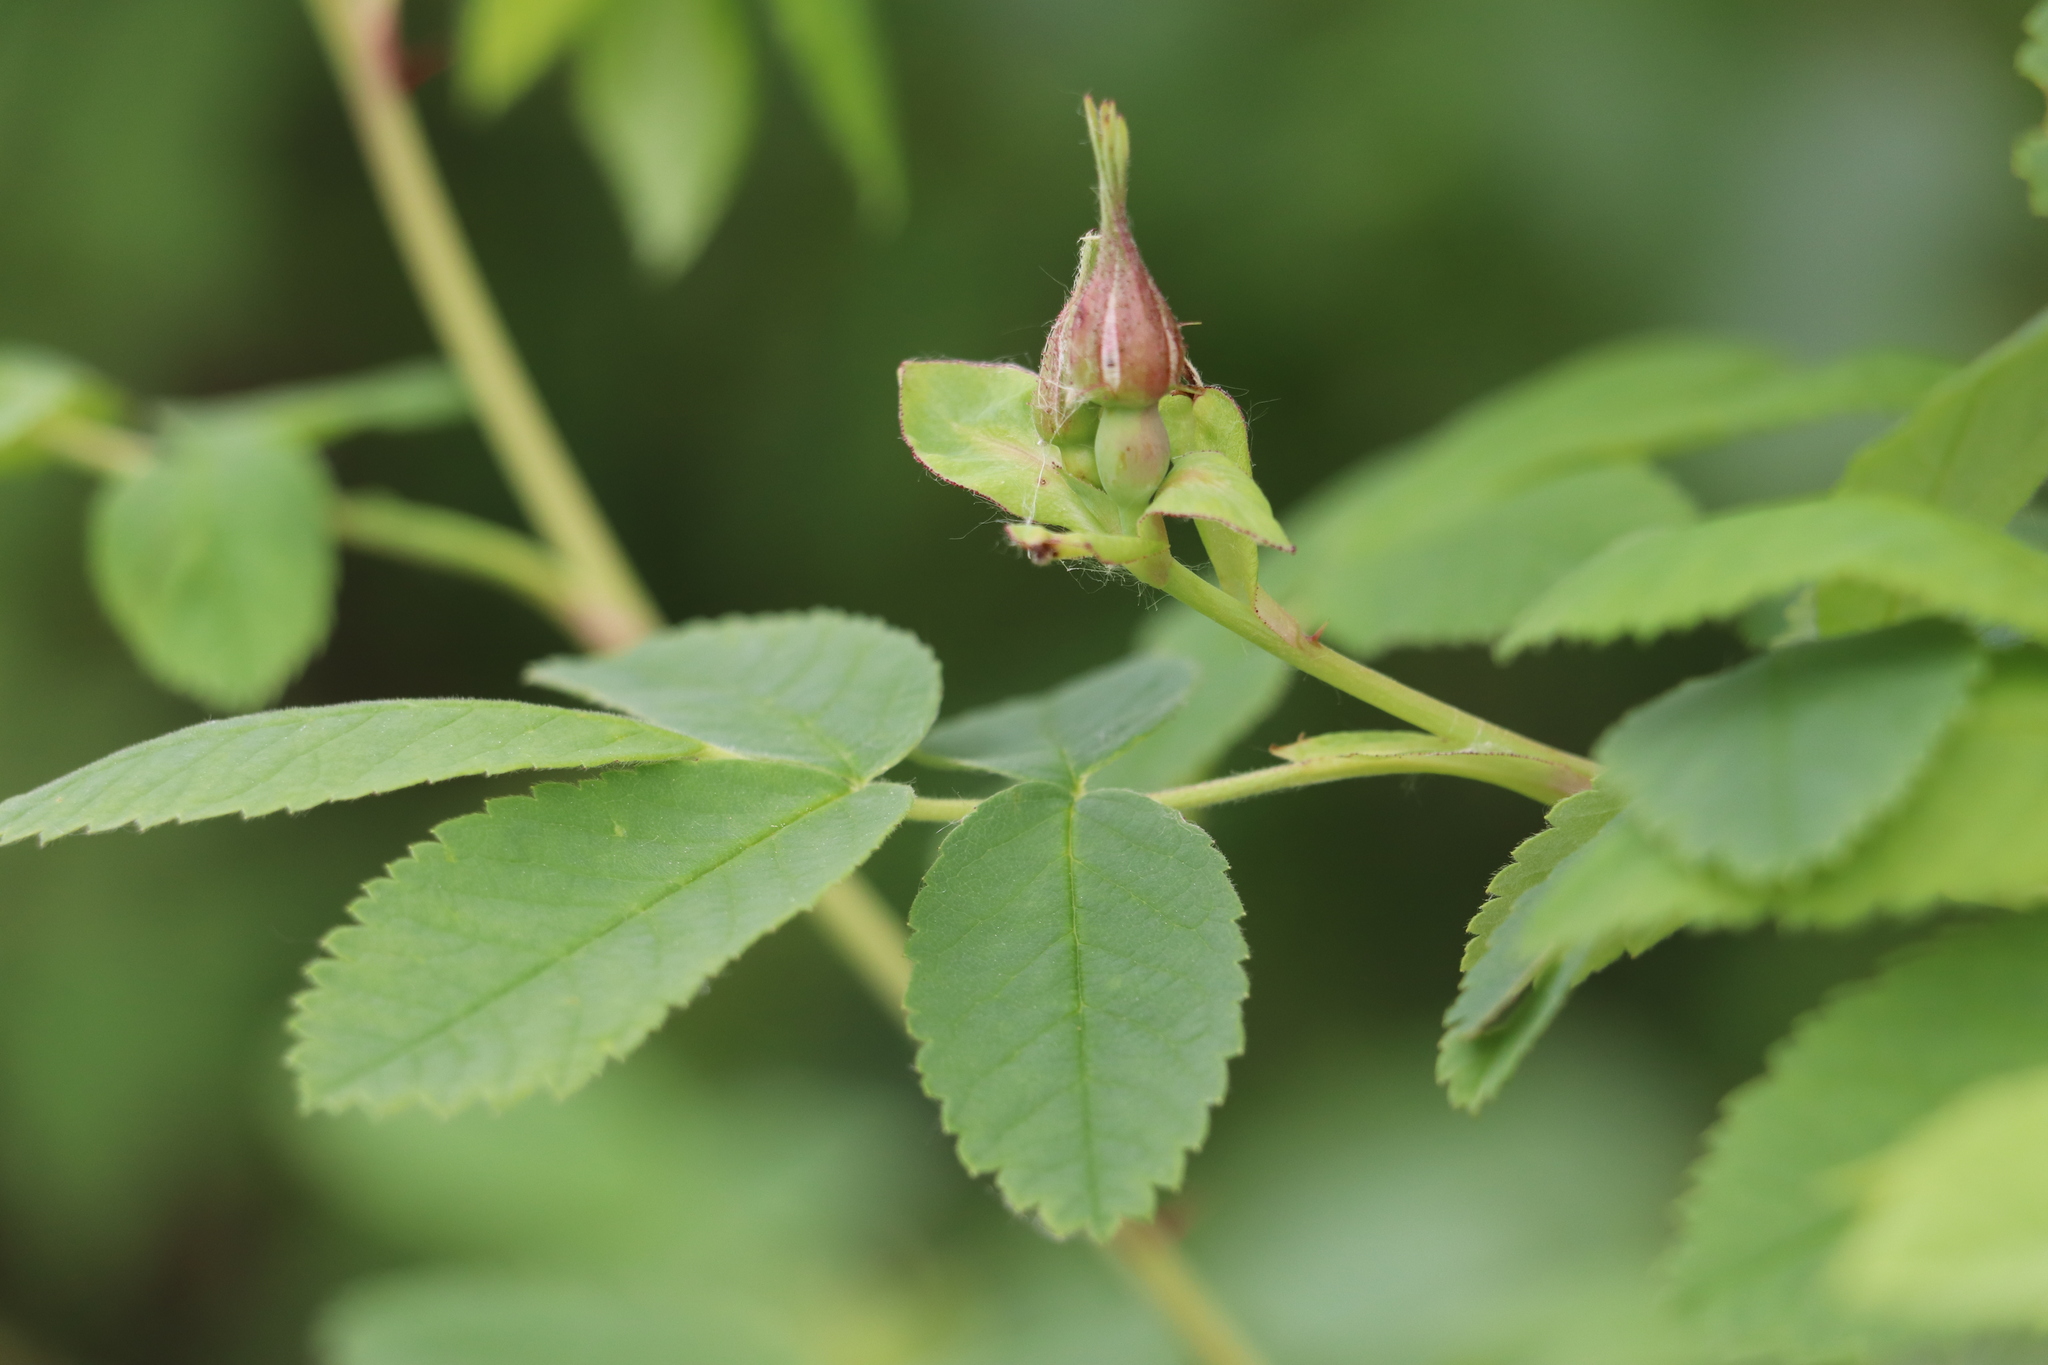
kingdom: Plantae
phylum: Tracheophyta
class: Magnoliopsida
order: Rosales
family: Rosaceae
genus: Rosa
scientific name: Rosa majalis
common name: Cinnamon rose
